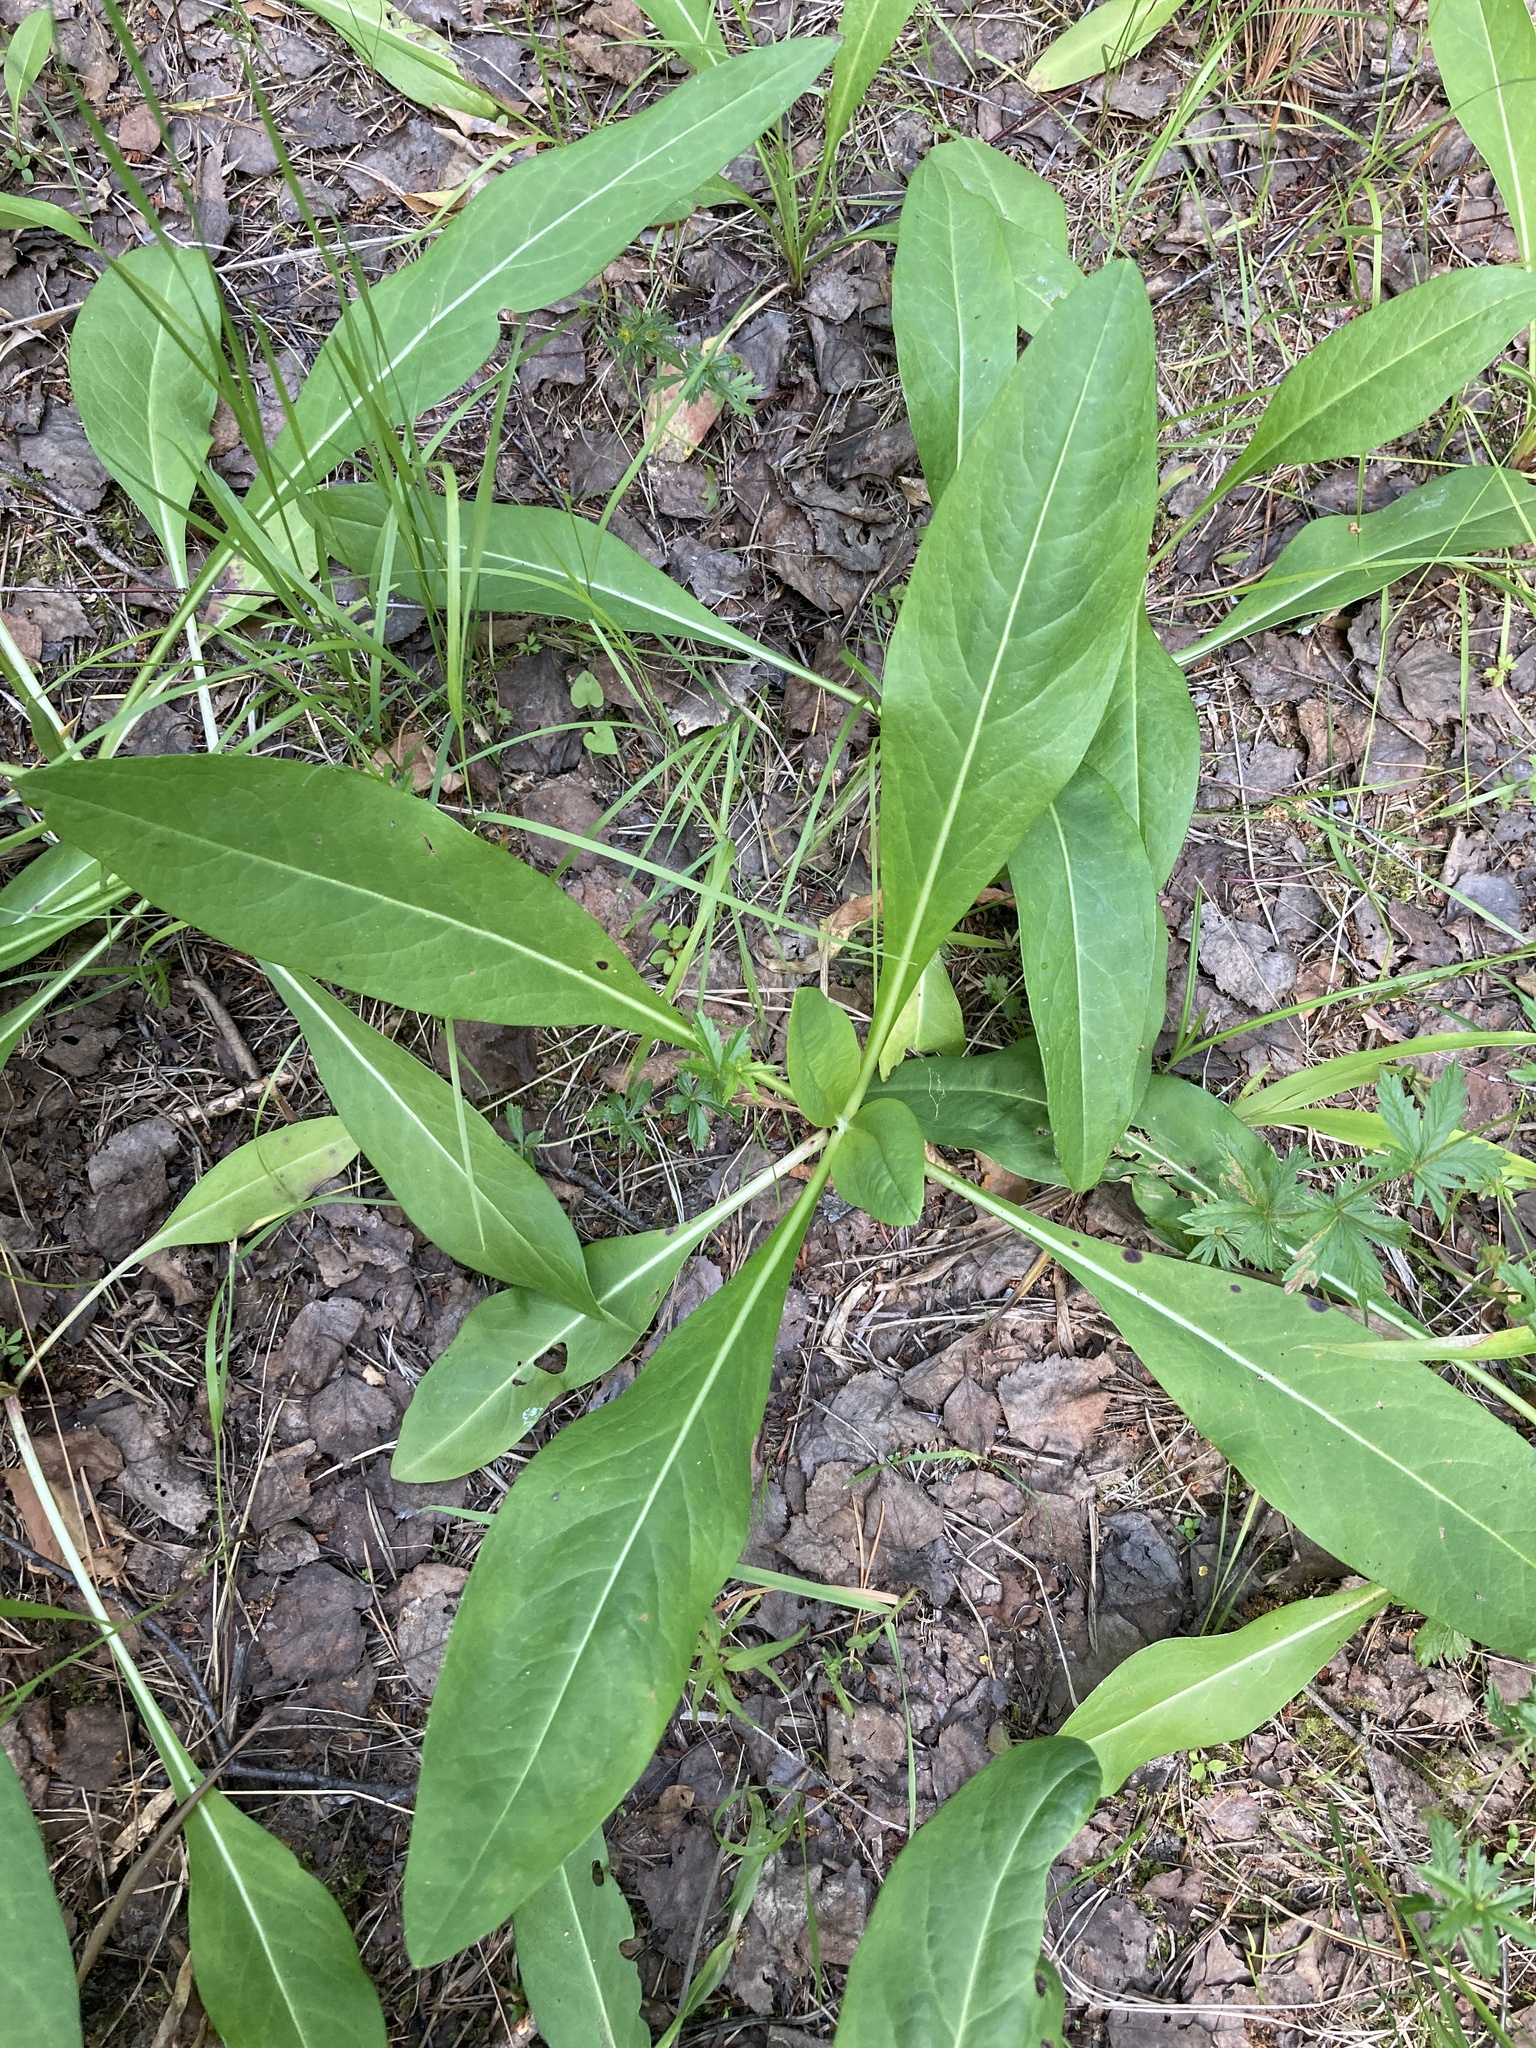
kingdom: Plantae
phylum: Tracheophyta
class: Magnoliopsida
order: Dipsacales
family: Caprifoliaceae
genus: Succisa
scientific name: Succisa pratensis
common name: Devil's-bit
